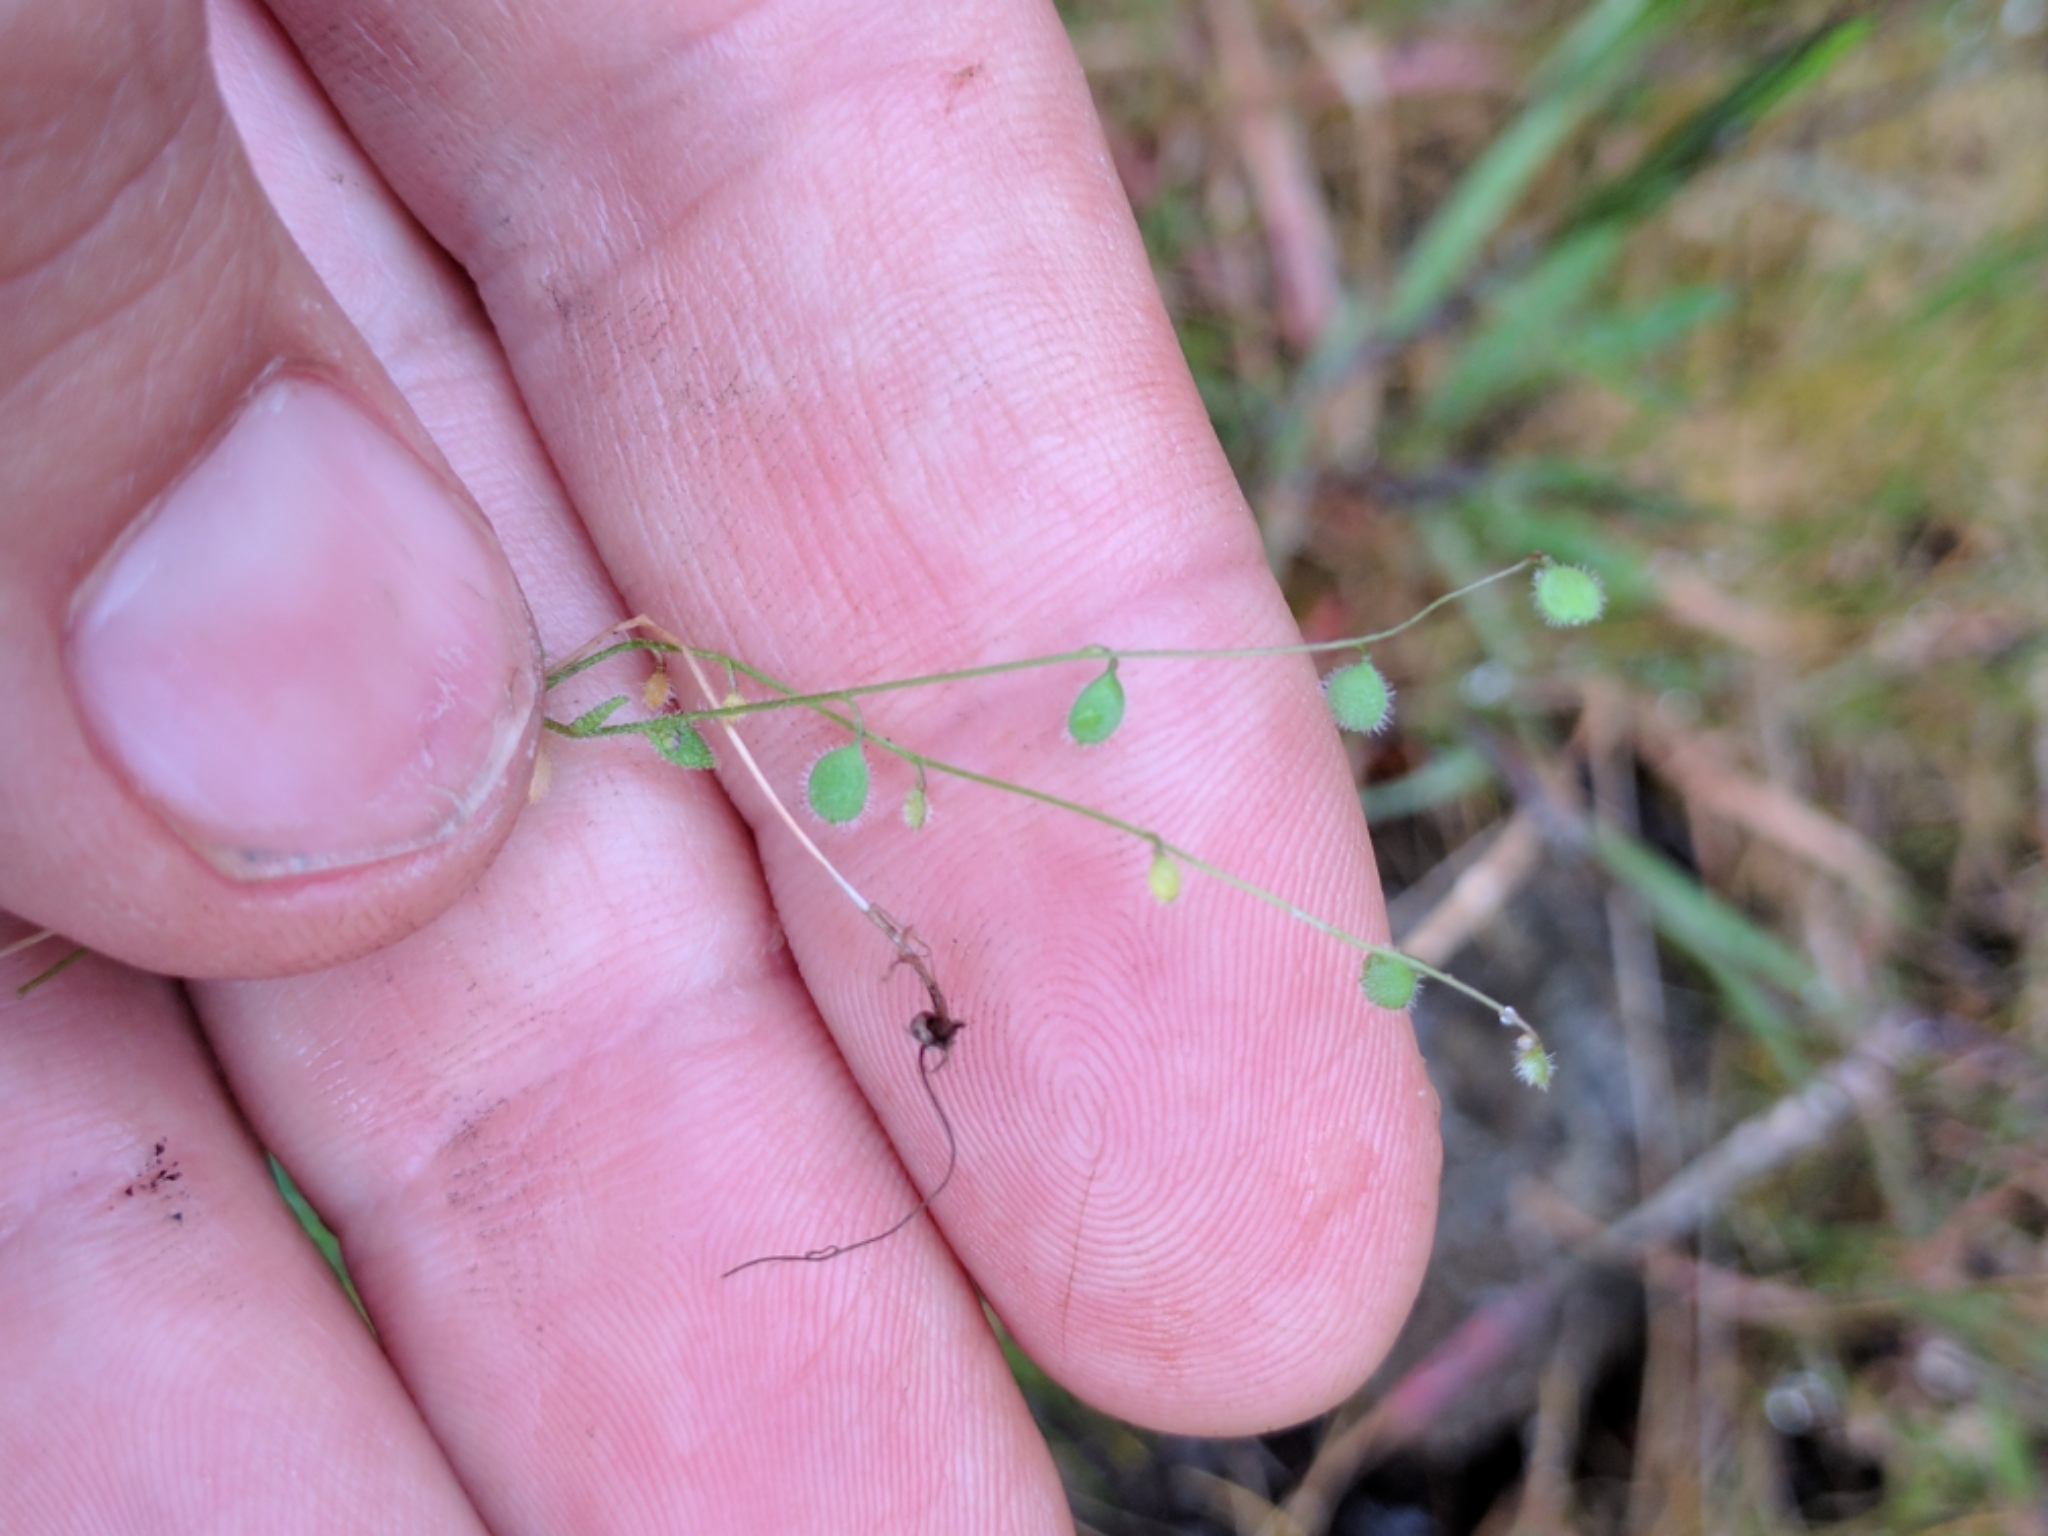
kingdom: Plantae
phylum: Tracheophyta
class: Magnoliopsida
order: Brassicales
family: Brassicaceae
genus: Athysanus
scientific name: Athysanus pusillus
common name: Common sandweed
